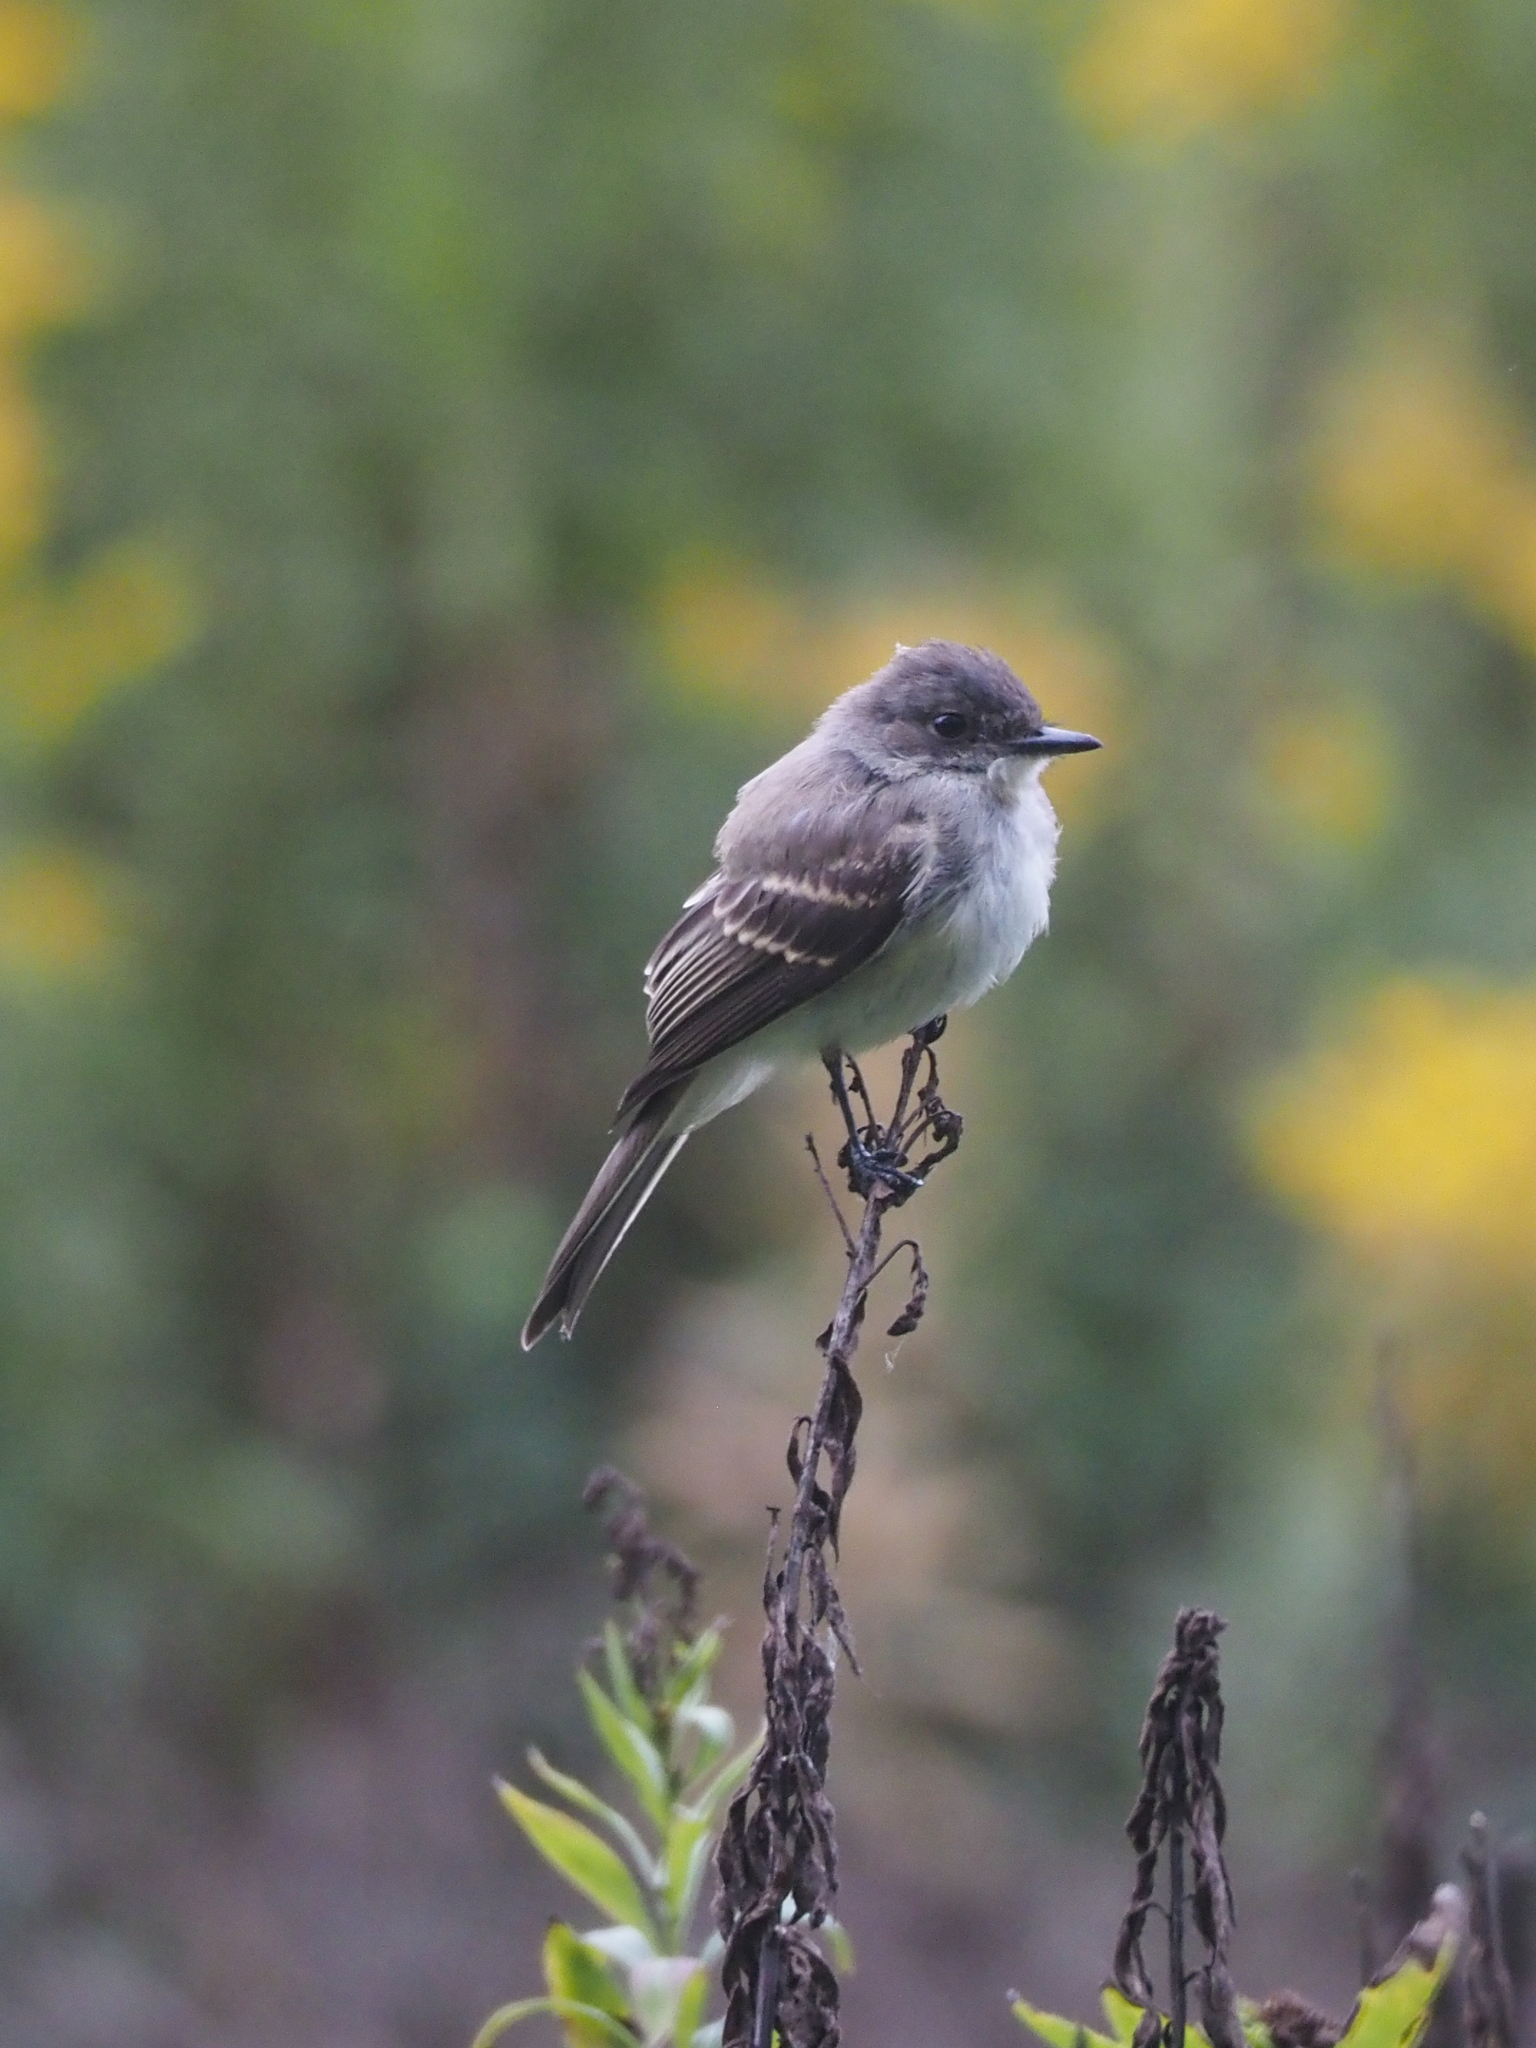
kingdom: Animalia
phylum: Chordata
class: Aves
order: Passeriformes
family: Tyrannidae
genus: Sayornis
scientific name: Sayornis phoebe
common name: Eastern phoebe
